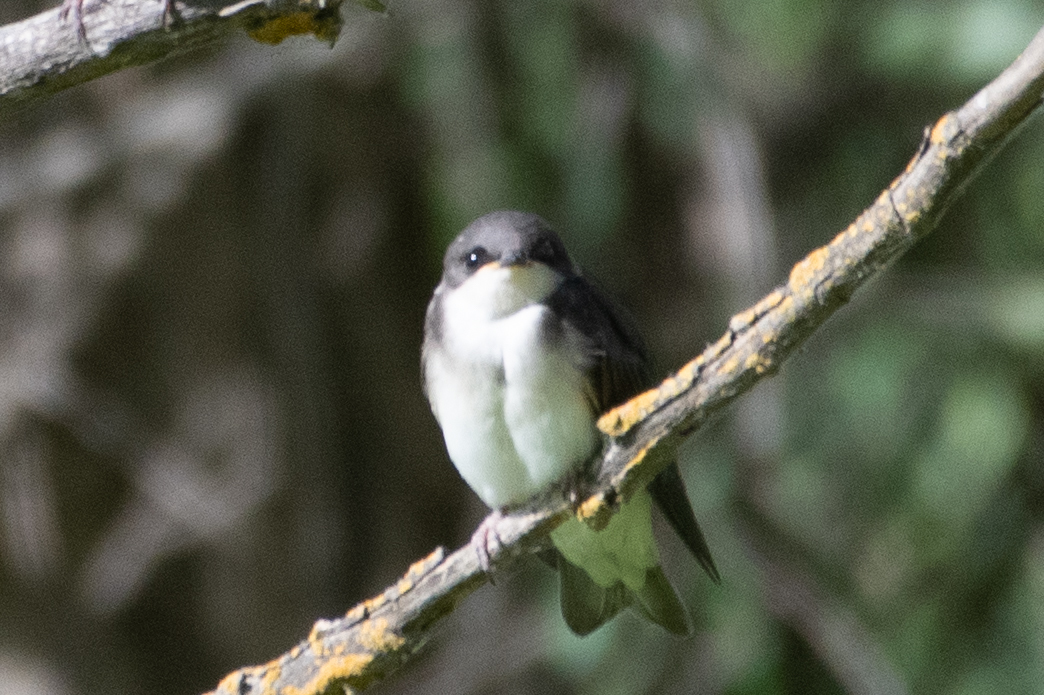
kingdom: Animalia
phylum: Chordata
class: Aves
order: Passeriformes
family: Hirundinidae
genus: Tachycineta
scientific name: Tachycineta bicolor
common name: Tree swallow
